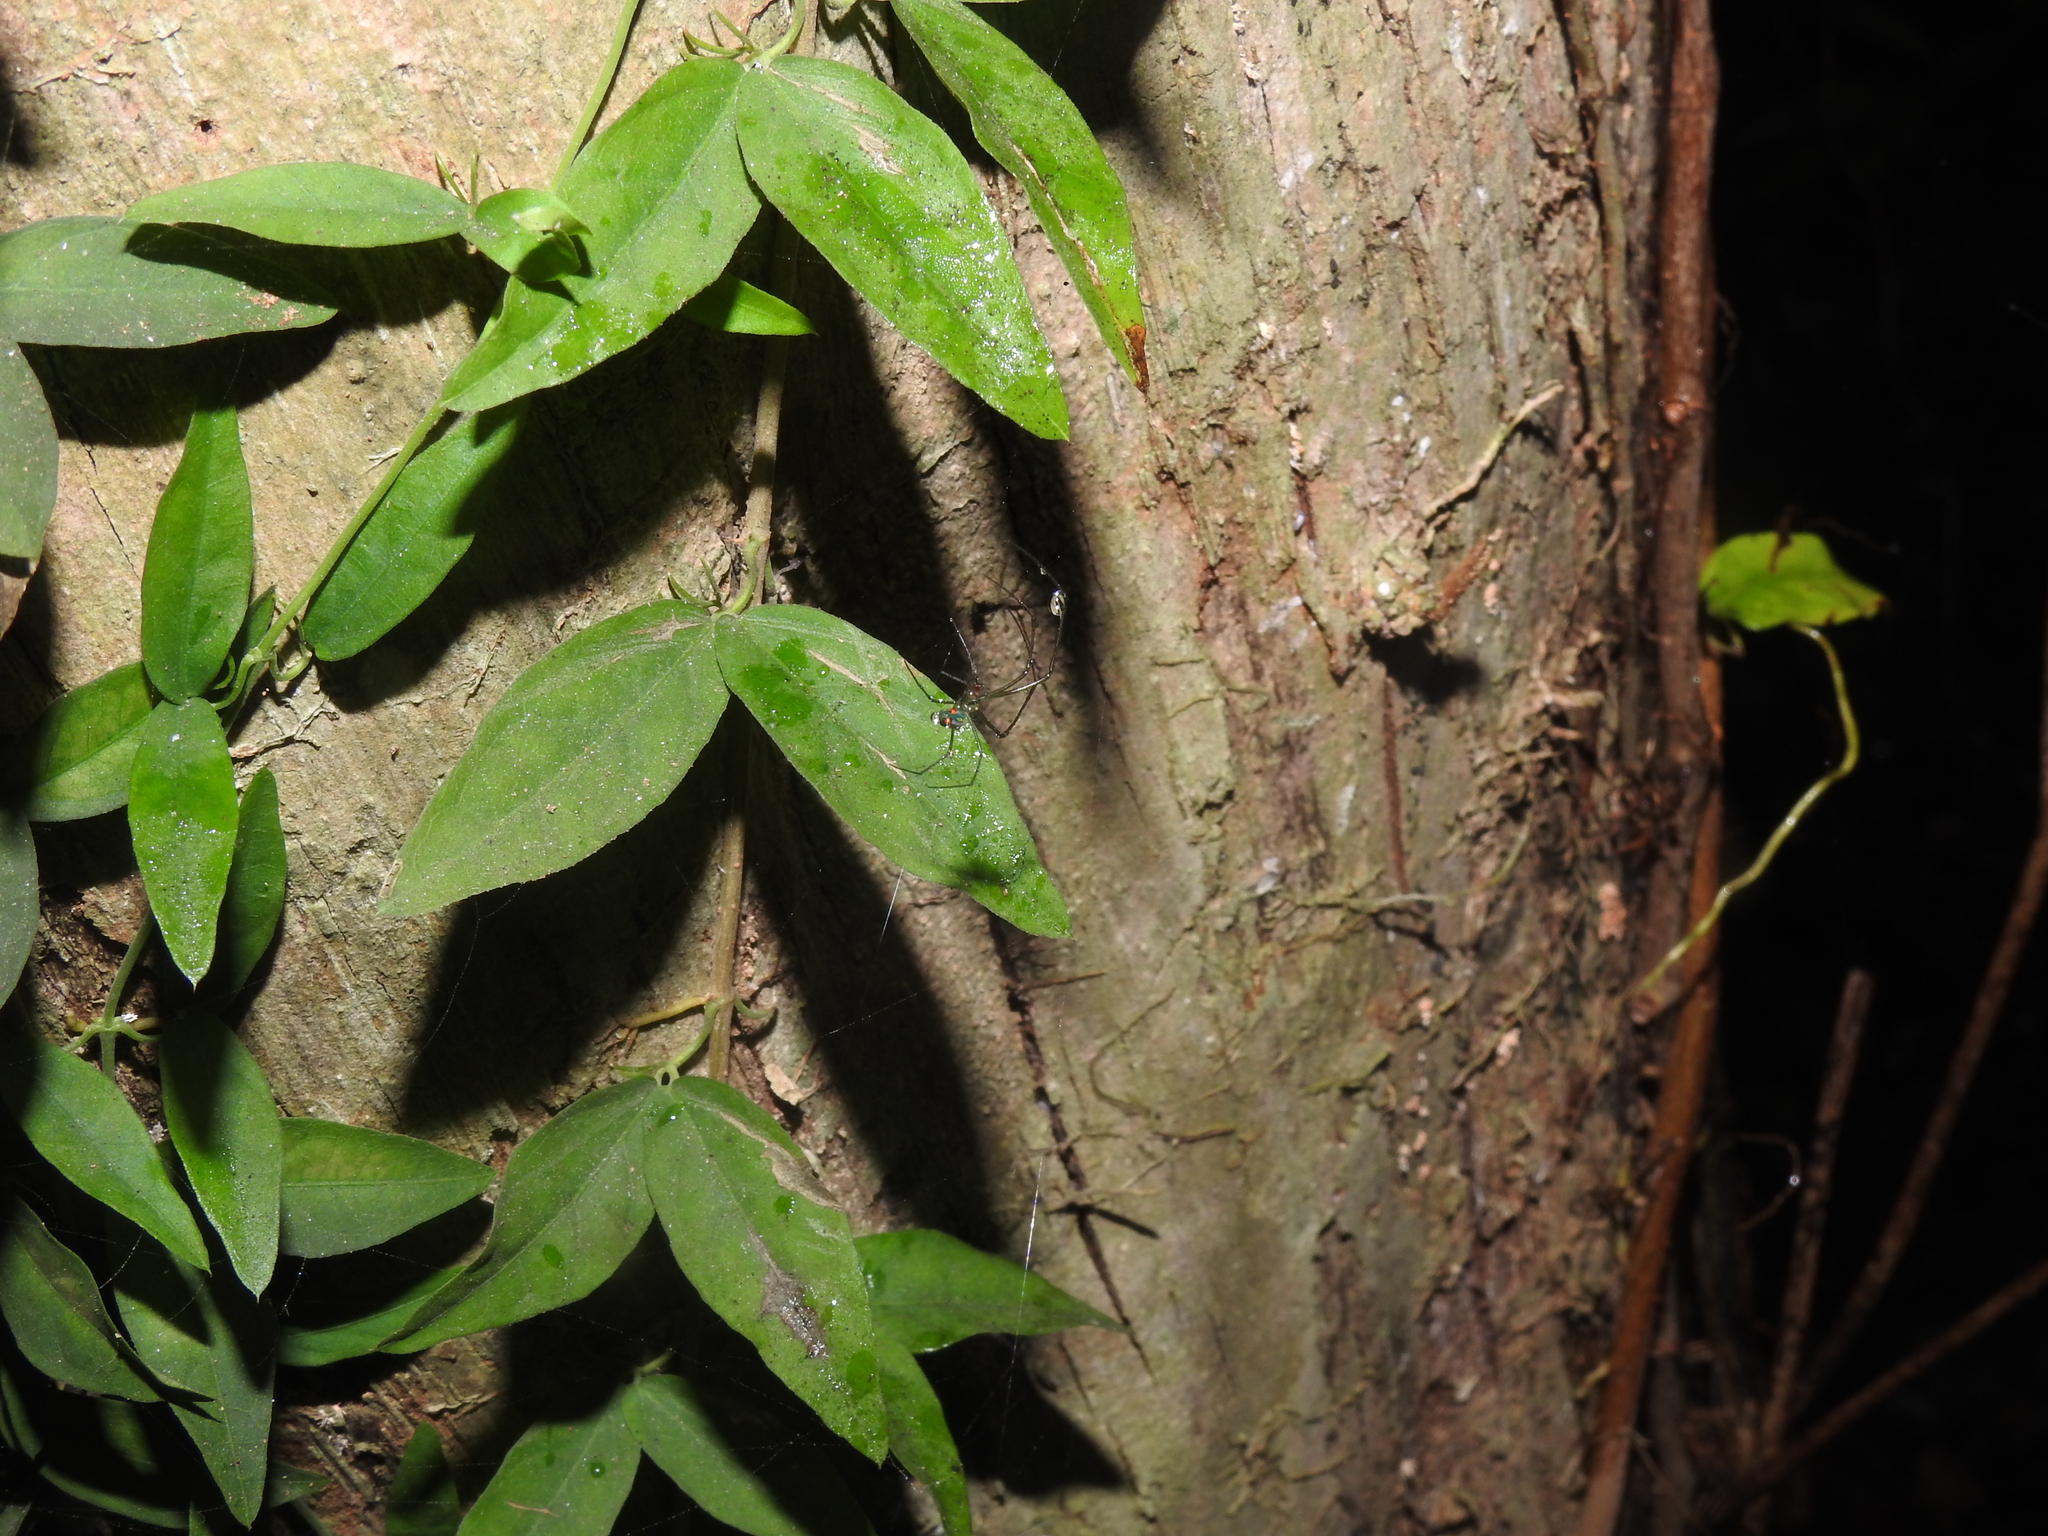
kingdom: Plantae
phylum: Tracheophyta
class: Magnoliopsida
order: Lamiales
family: Bignoniaceae
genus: Dolichandra
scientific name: Dolichandra unguis-cati
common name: Catclaw vine
